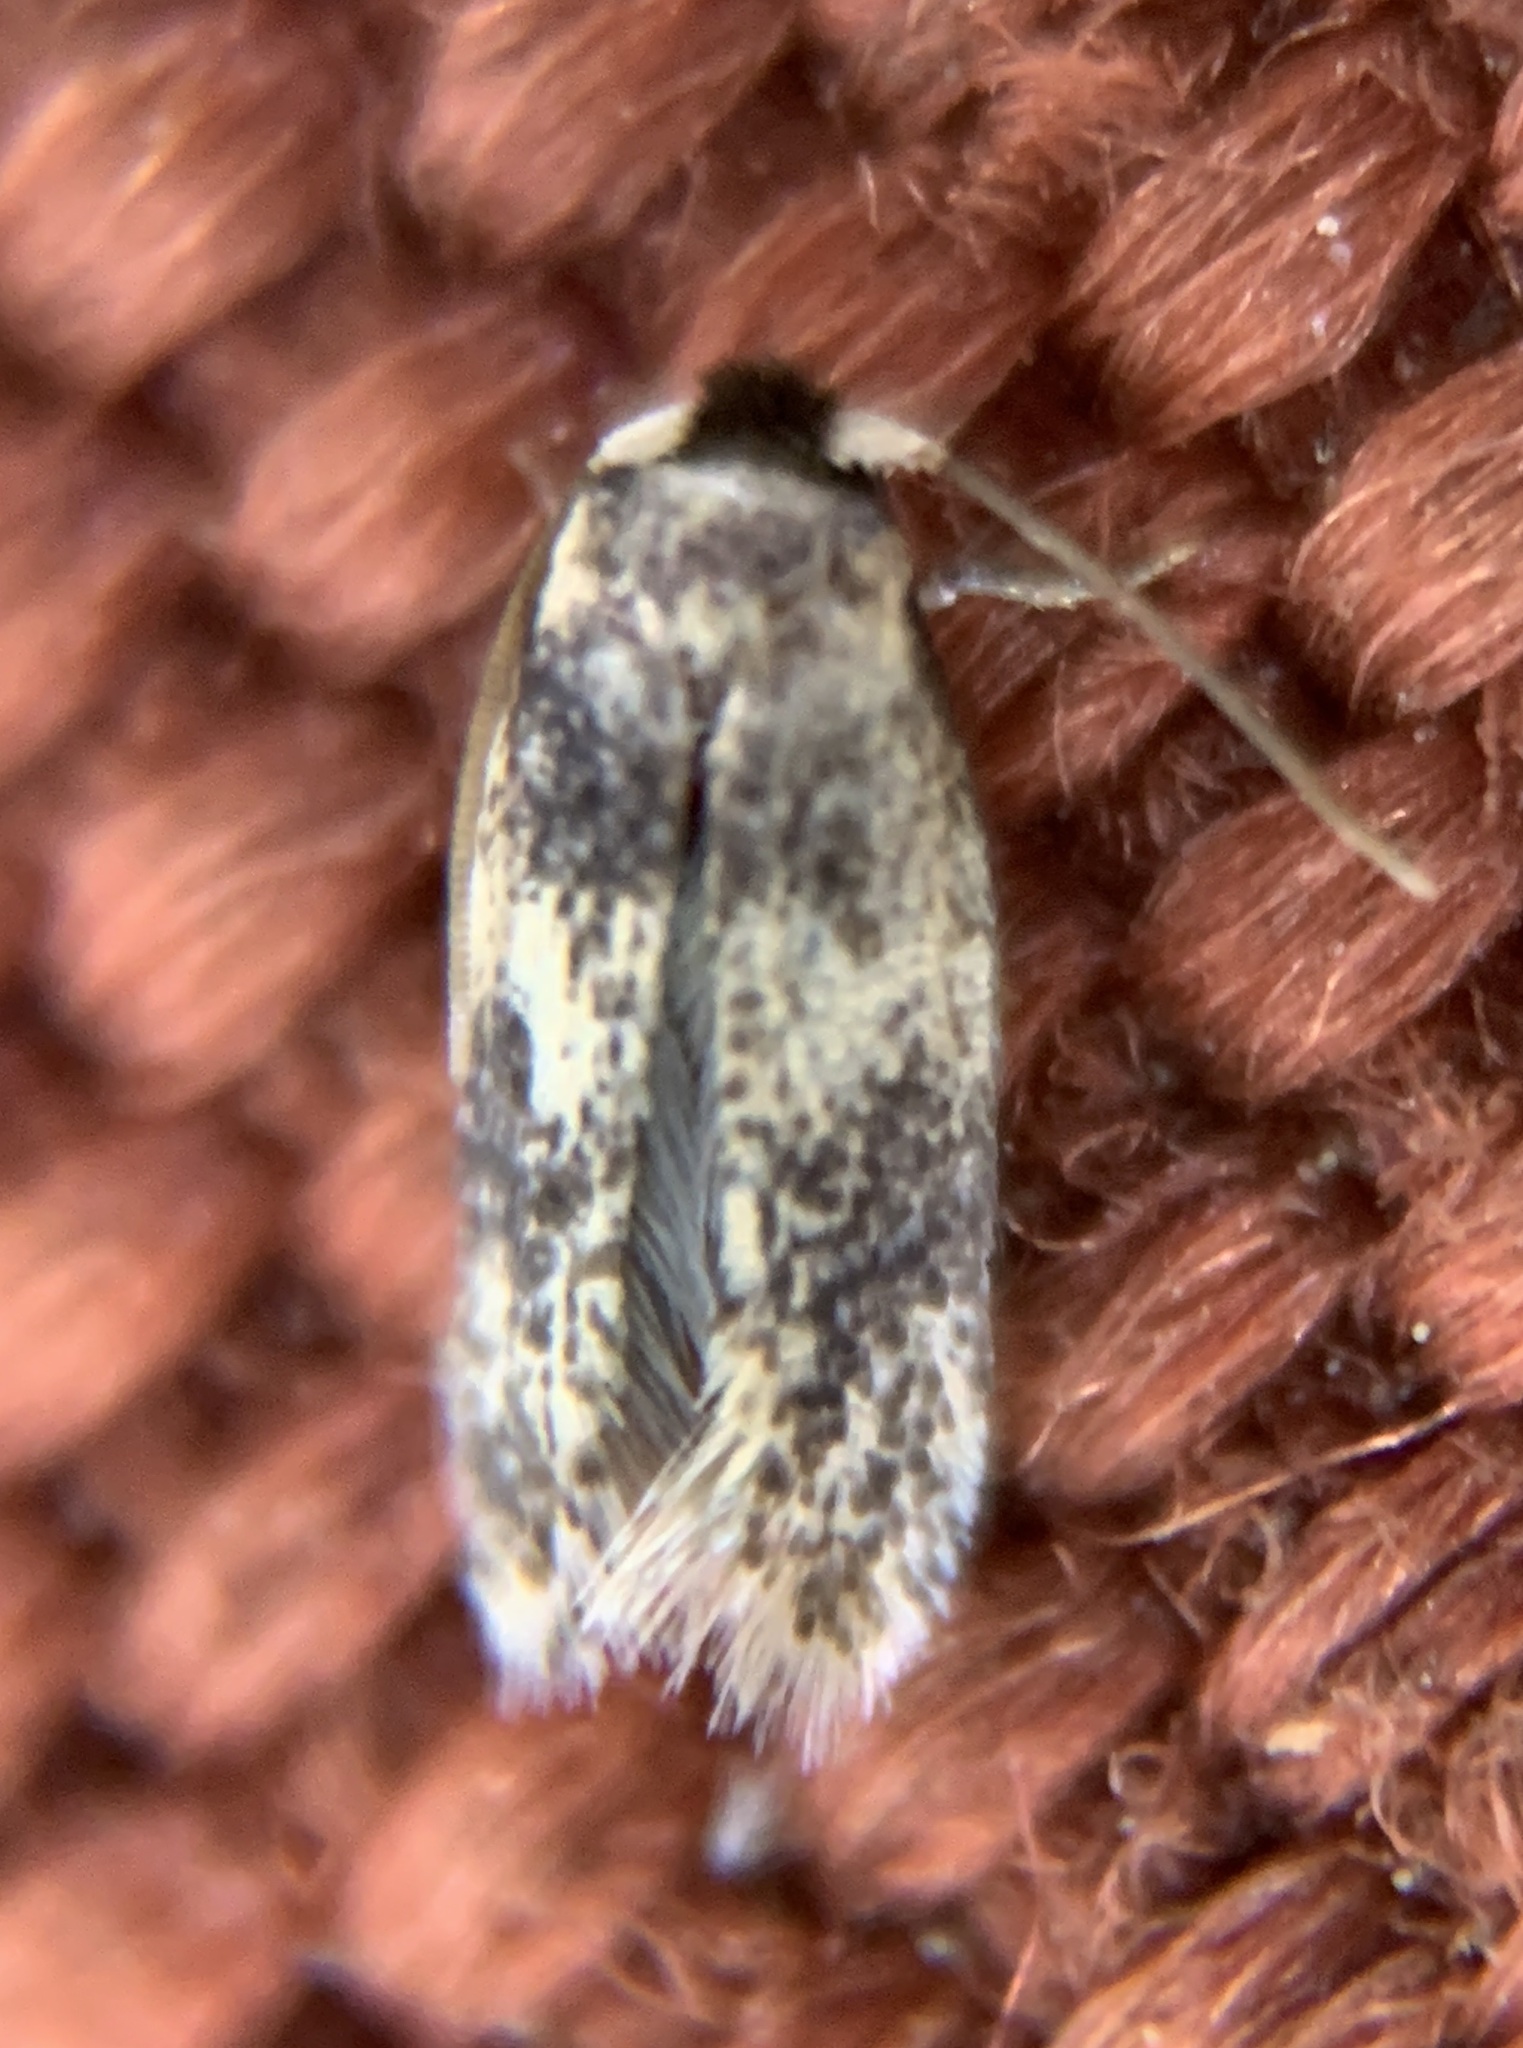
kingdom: Animalia
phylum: Arthropoda
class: Insecta
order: Lepidoptera
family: Nepticulidae
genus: Zimmermannia
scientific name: Zimmermannia bosquella
